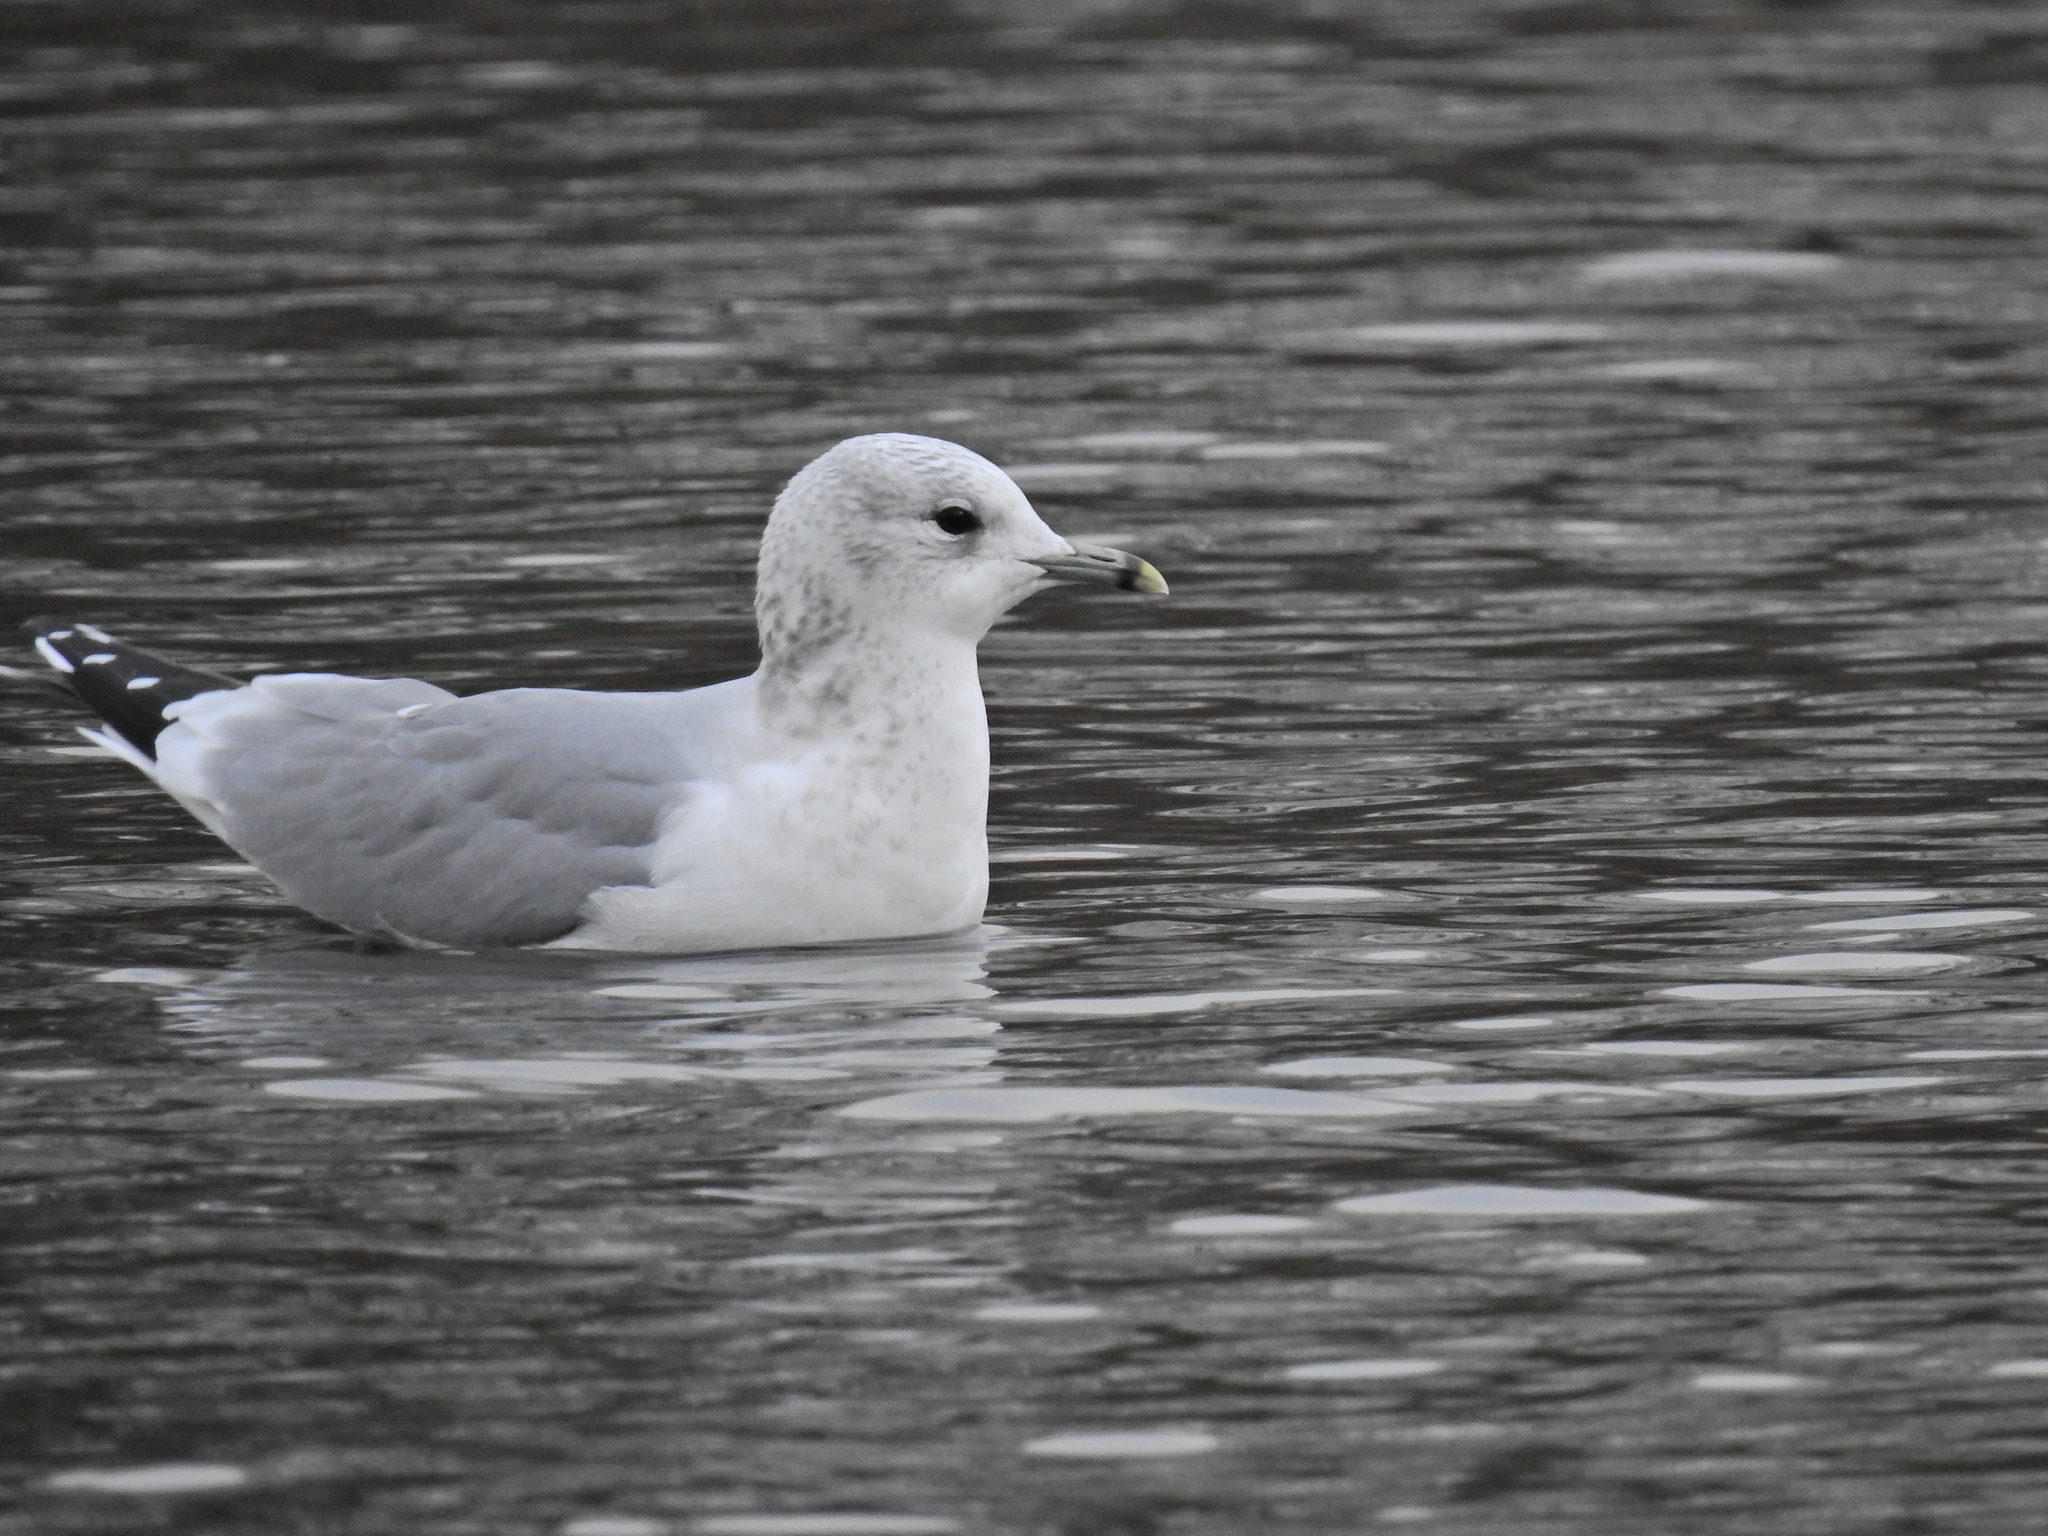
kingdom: Animalia
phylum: Chordata
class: Aves
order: Charadriiformes
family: Laridae
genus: Larus
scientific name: Larus canus
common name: Mew gull
